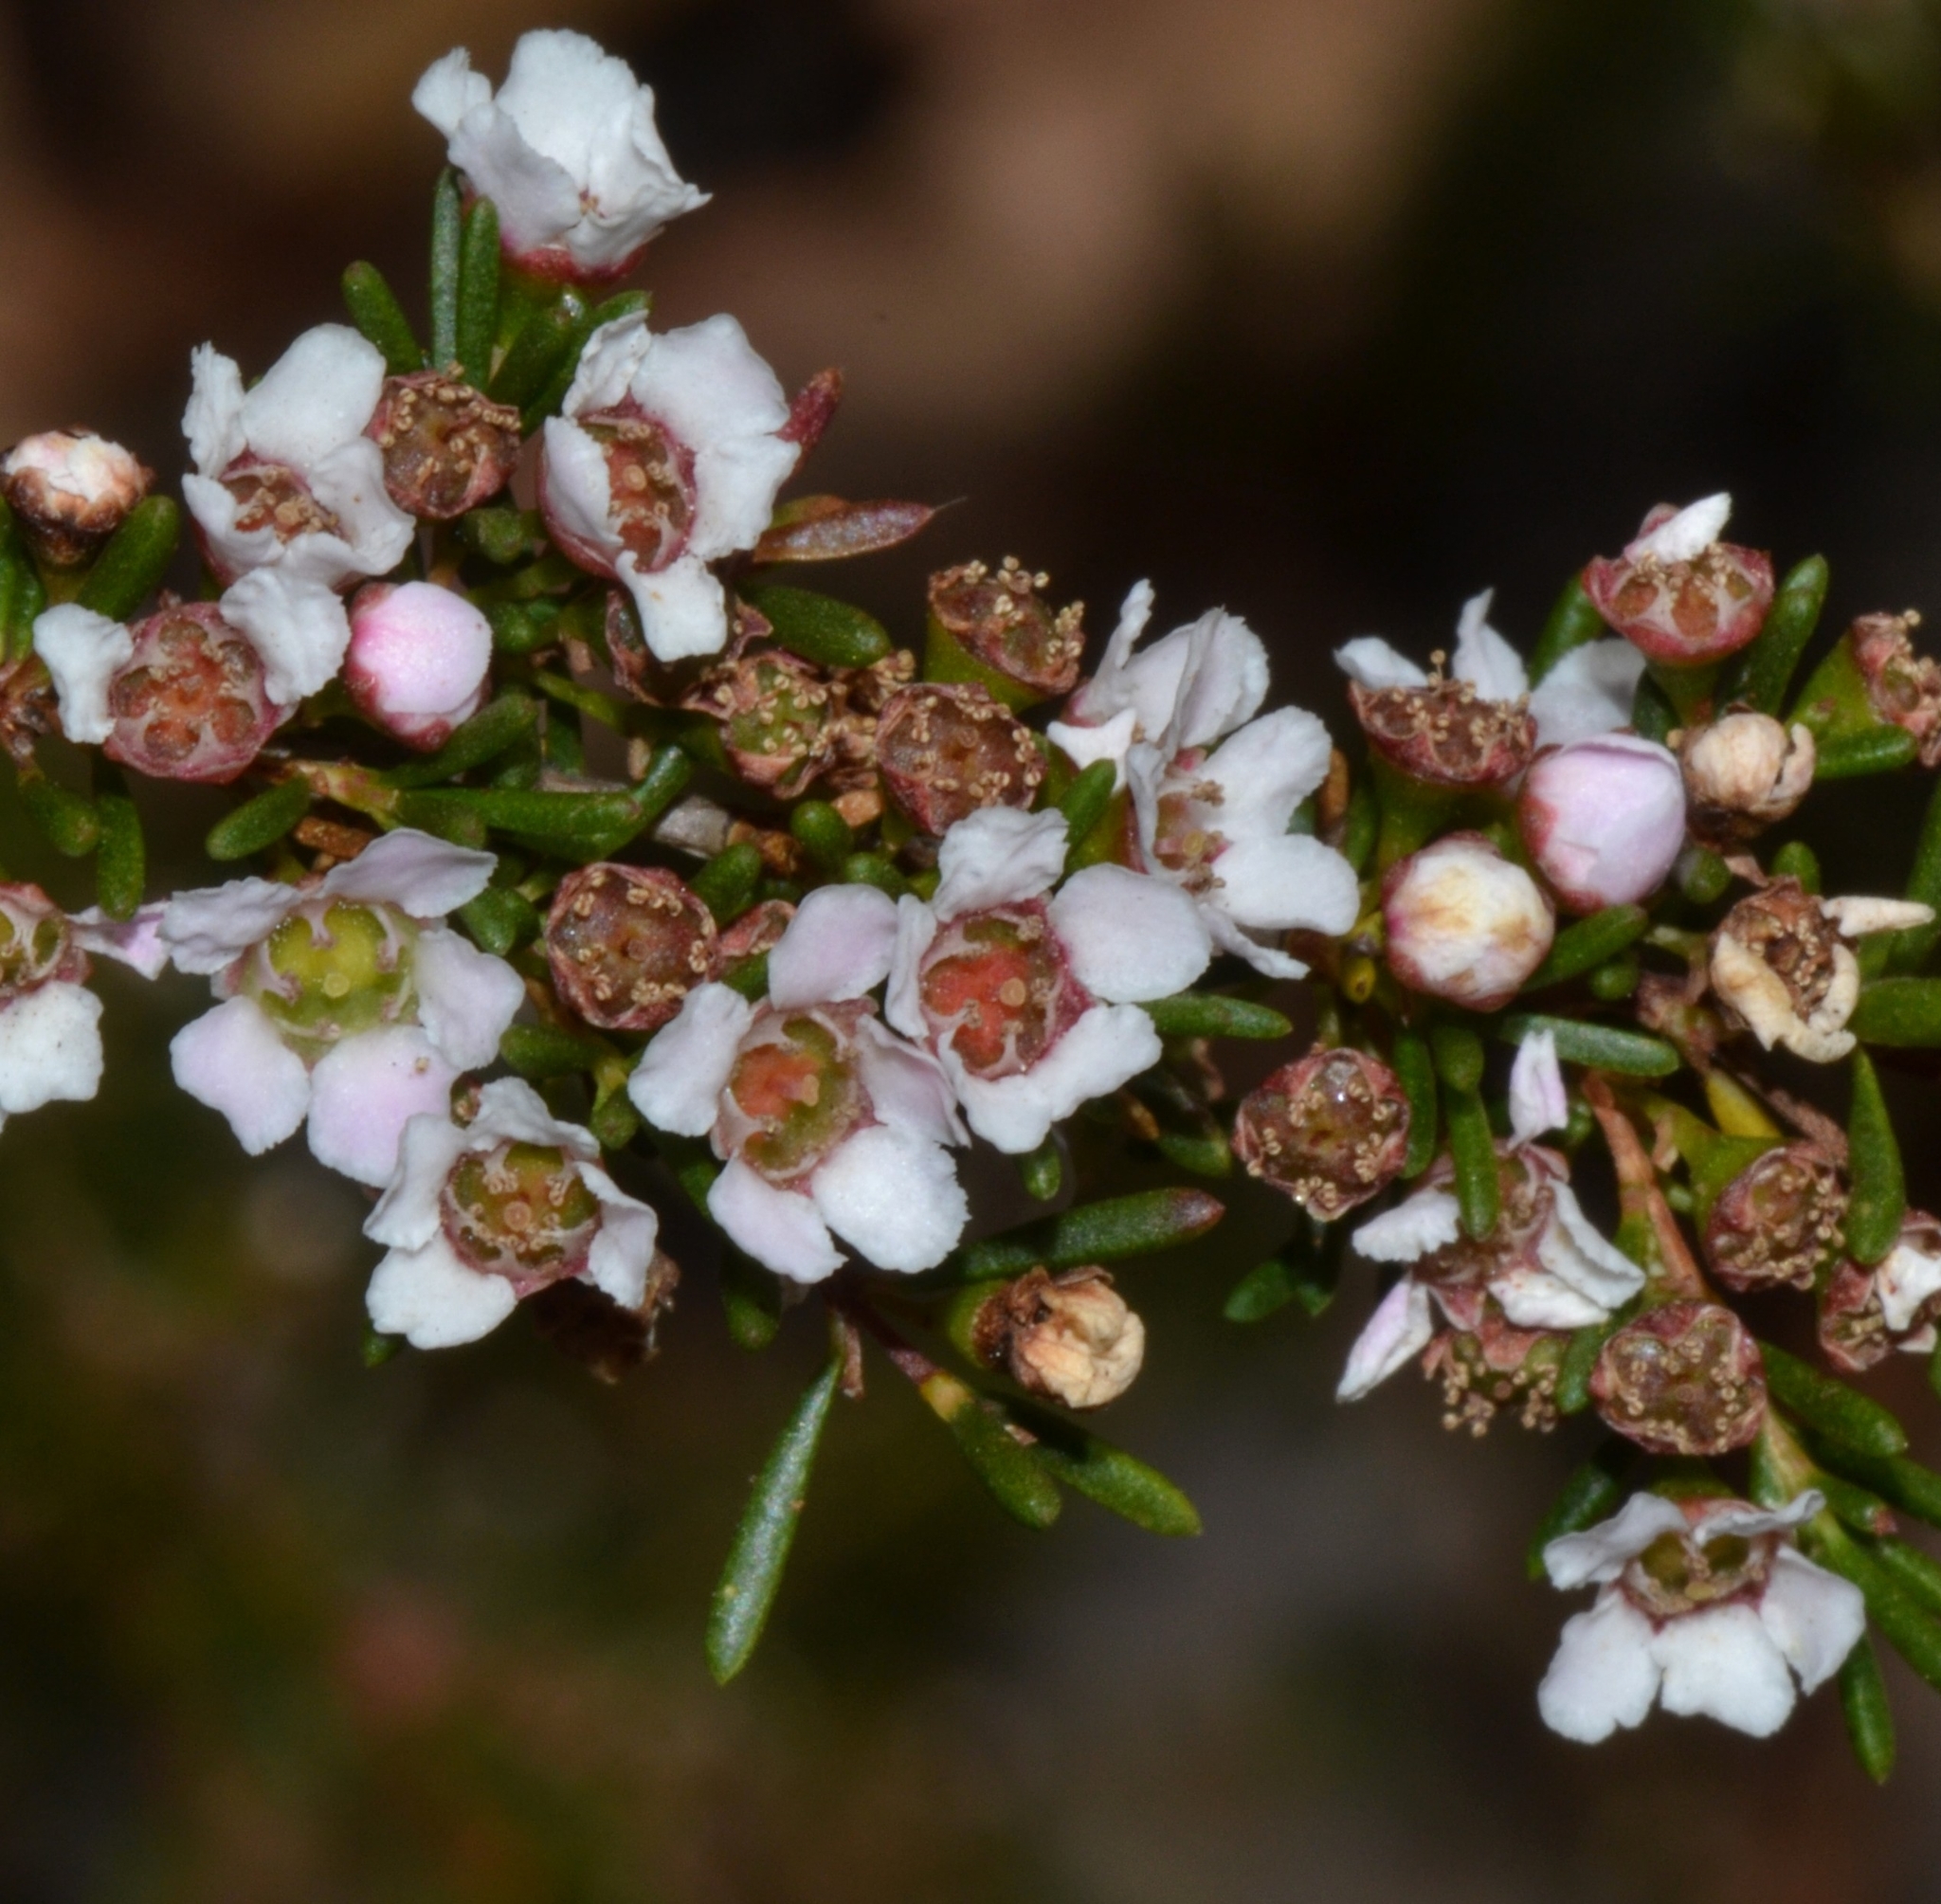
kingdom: Plantae
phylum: Tracheophyta
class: Magnoliopsida
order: Myrtales
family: Myrtaceae
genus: Astartea
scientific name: Astartea fascicularis
